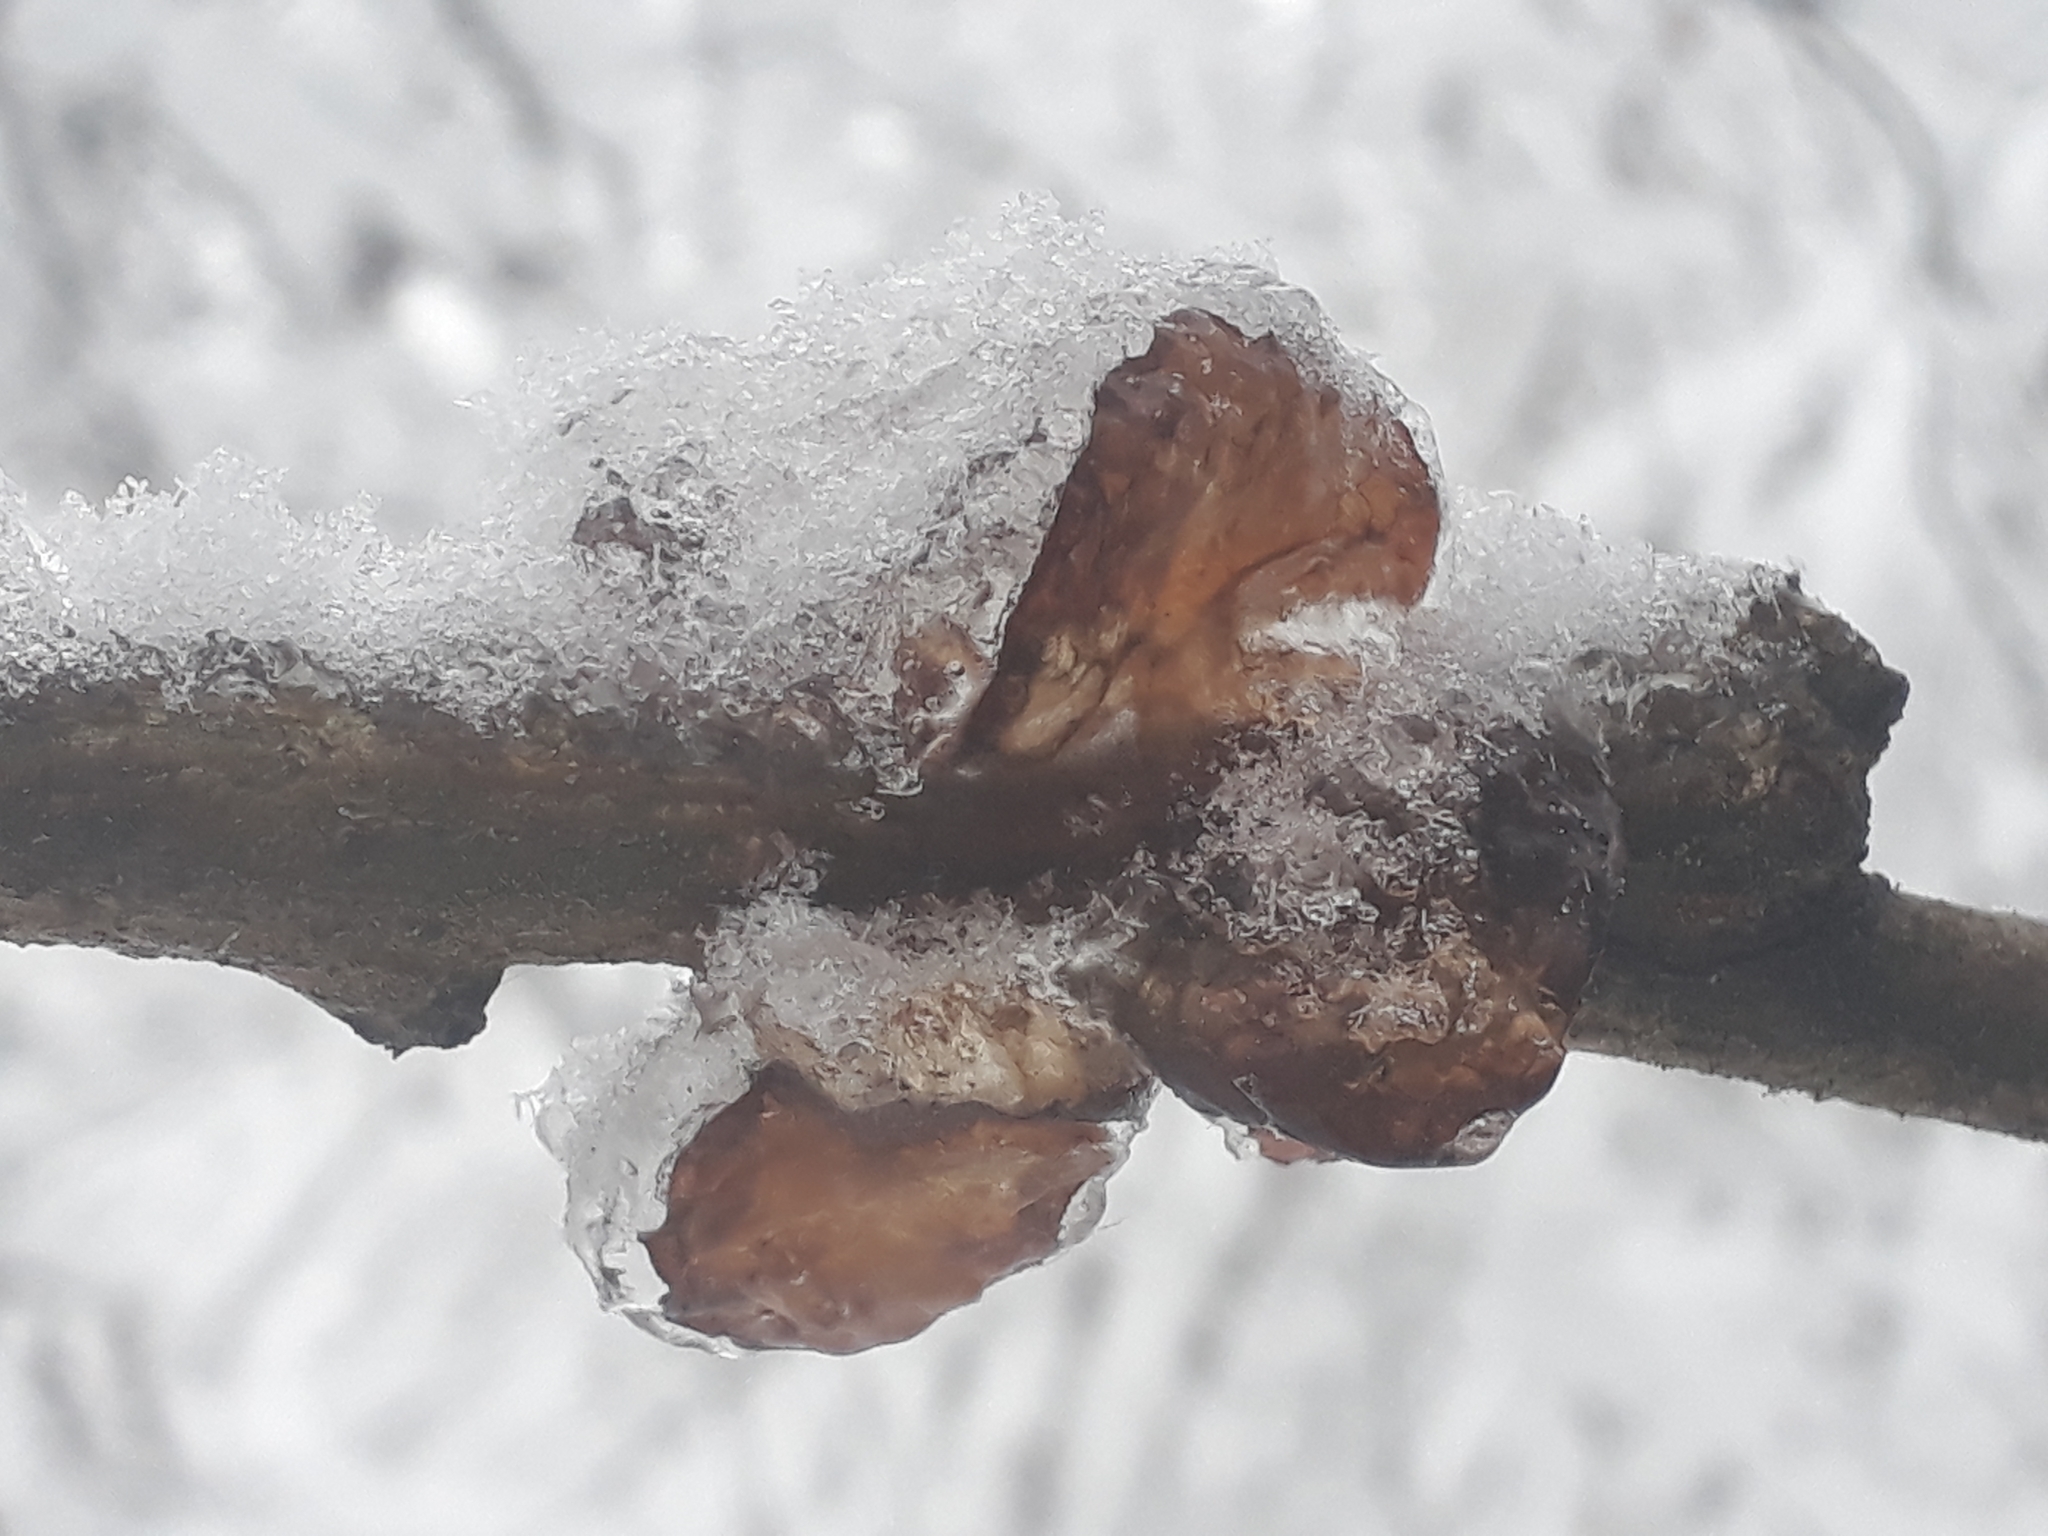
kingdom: Fungi
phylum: Basidiomycota
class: Agaricomycetes
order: Auriculariales
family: Auriculariaceae
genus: Exidia
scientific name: Exidia recisa
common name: Amber jelly
